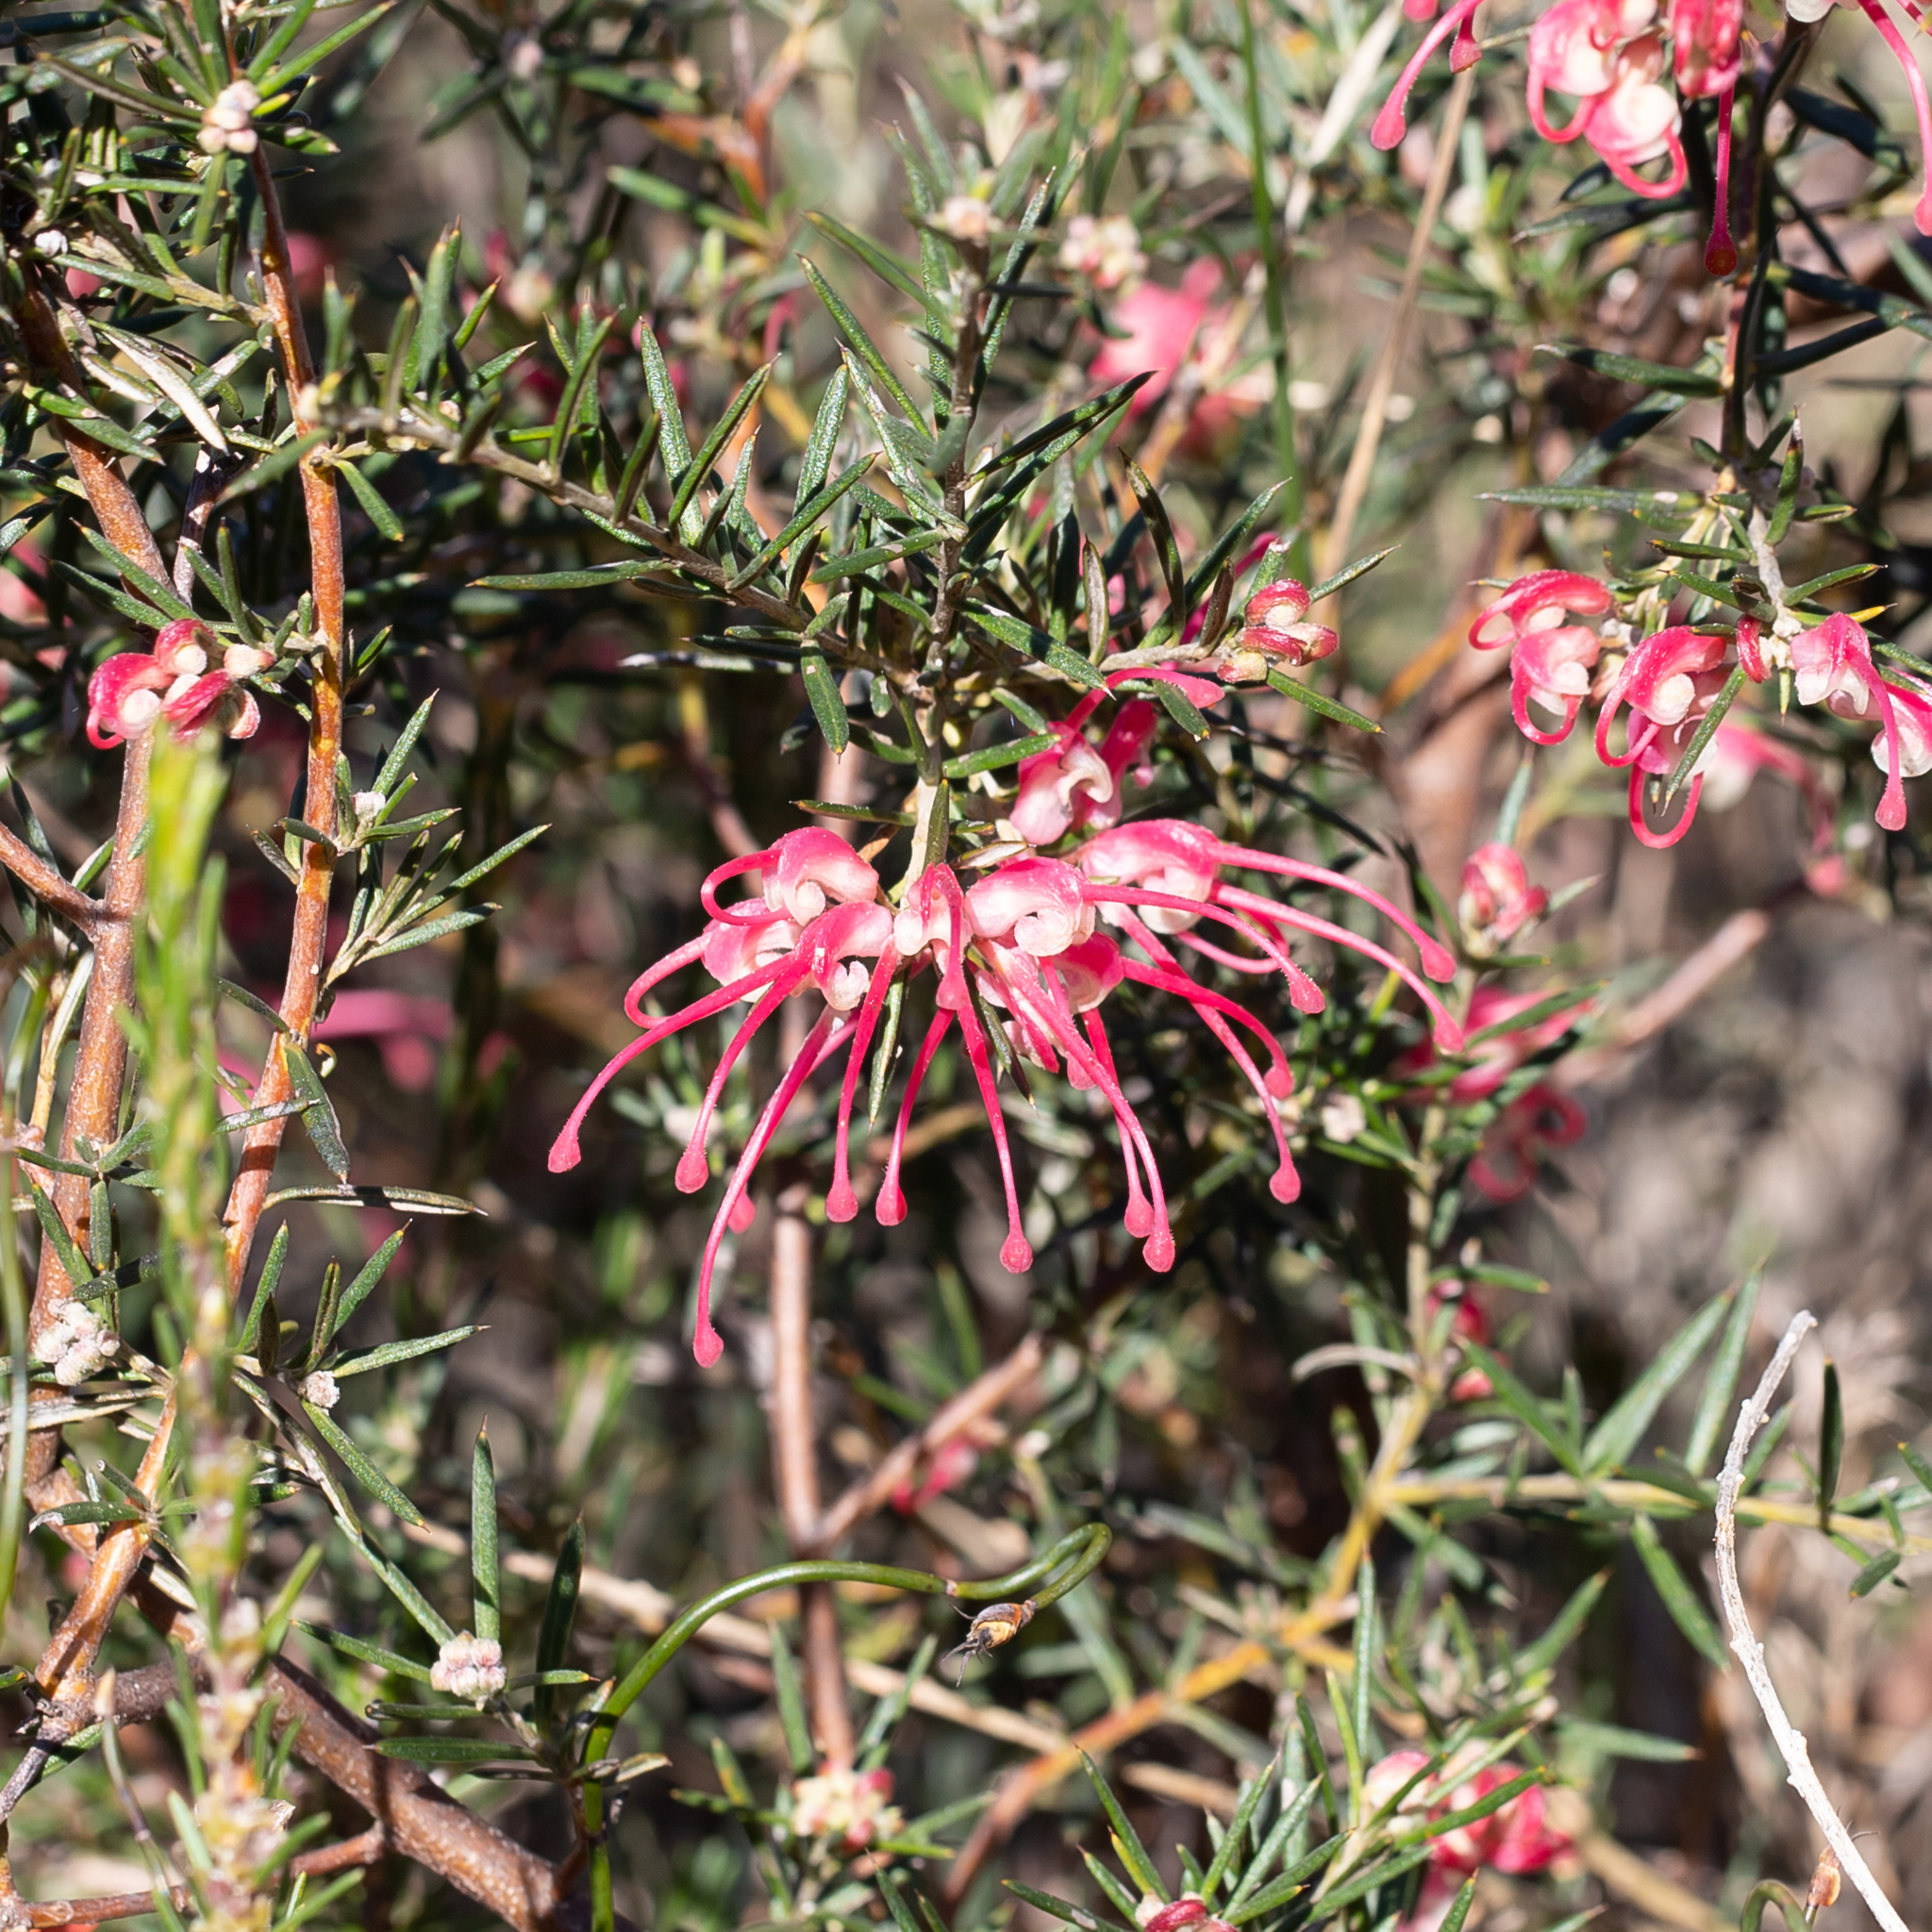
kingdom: Plantae
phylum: Tracheophyta
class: Magnoliopsida
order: Proteales
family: Proteaceae
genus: Grevillea
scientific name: Grevillea lavandulacea
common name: Lavender grevillea
